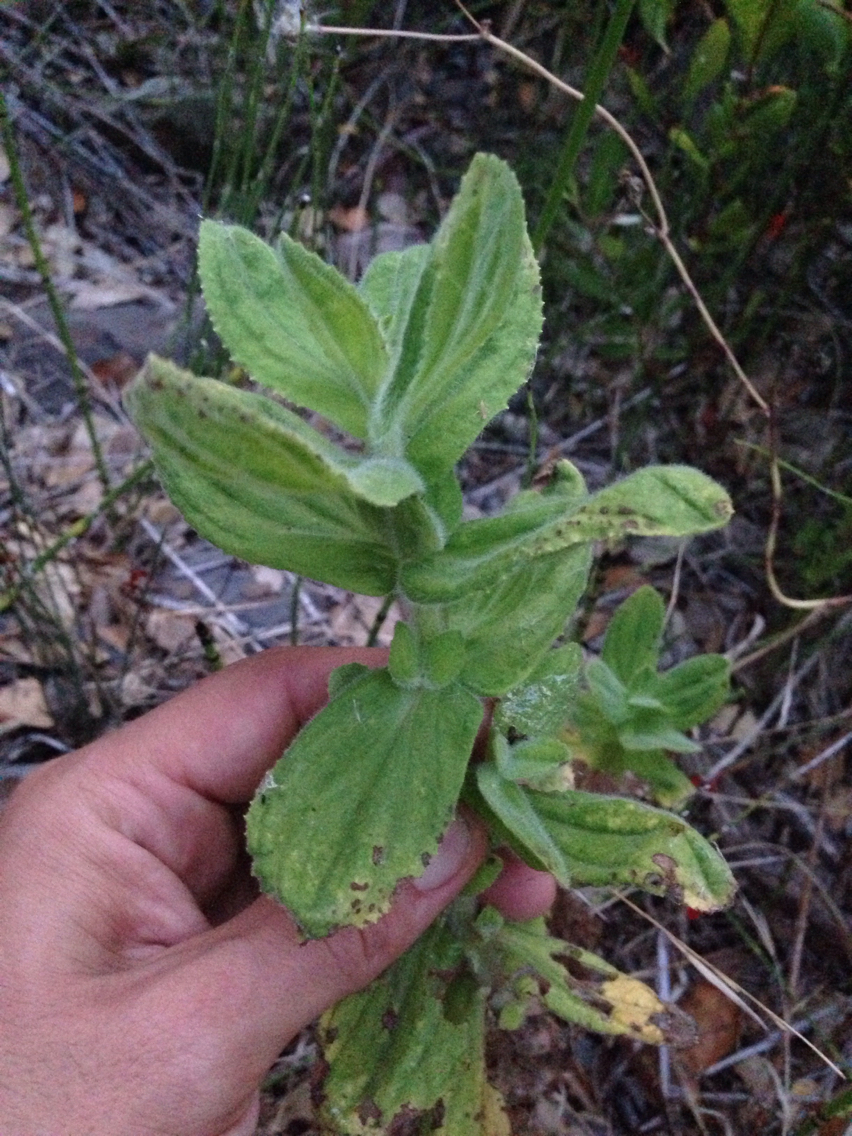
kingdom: Plantae
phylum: Tracheophyta
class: Magnoliopsida
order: Lamiales
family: Phrymaceae
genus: Erythranthe
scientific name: Erythranthe cardinalis
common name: Scarlet monkey-flower
